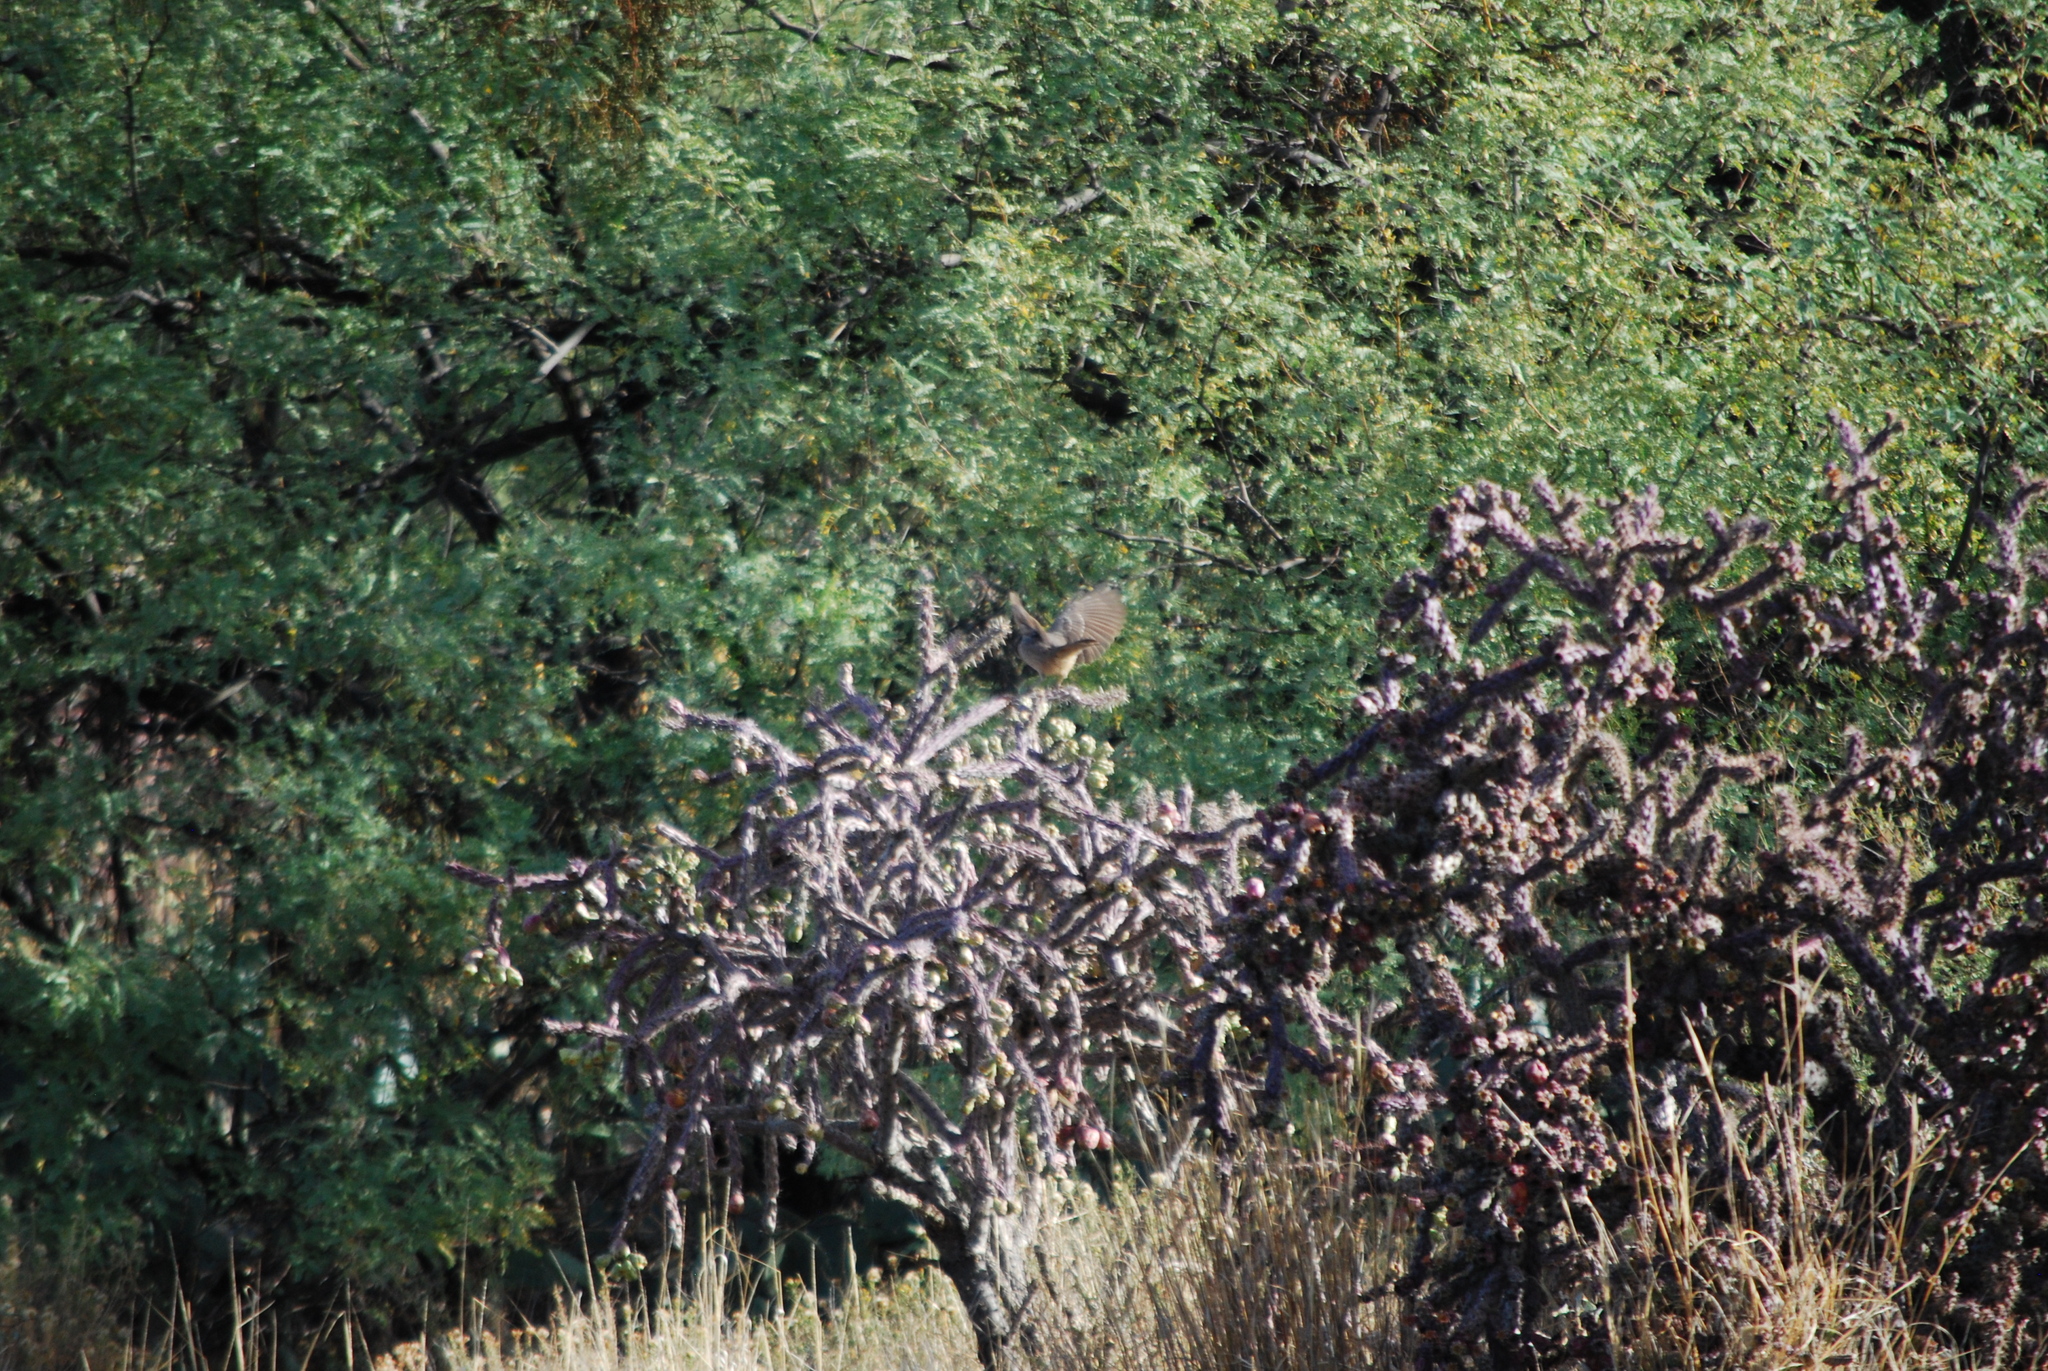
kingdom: Animalia
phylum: Chordata
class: Aves
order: Passeriformes
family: Mimidae
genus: Toxostoma
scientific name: Toxostoma curvirostre
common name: Curve-billed thrasher
